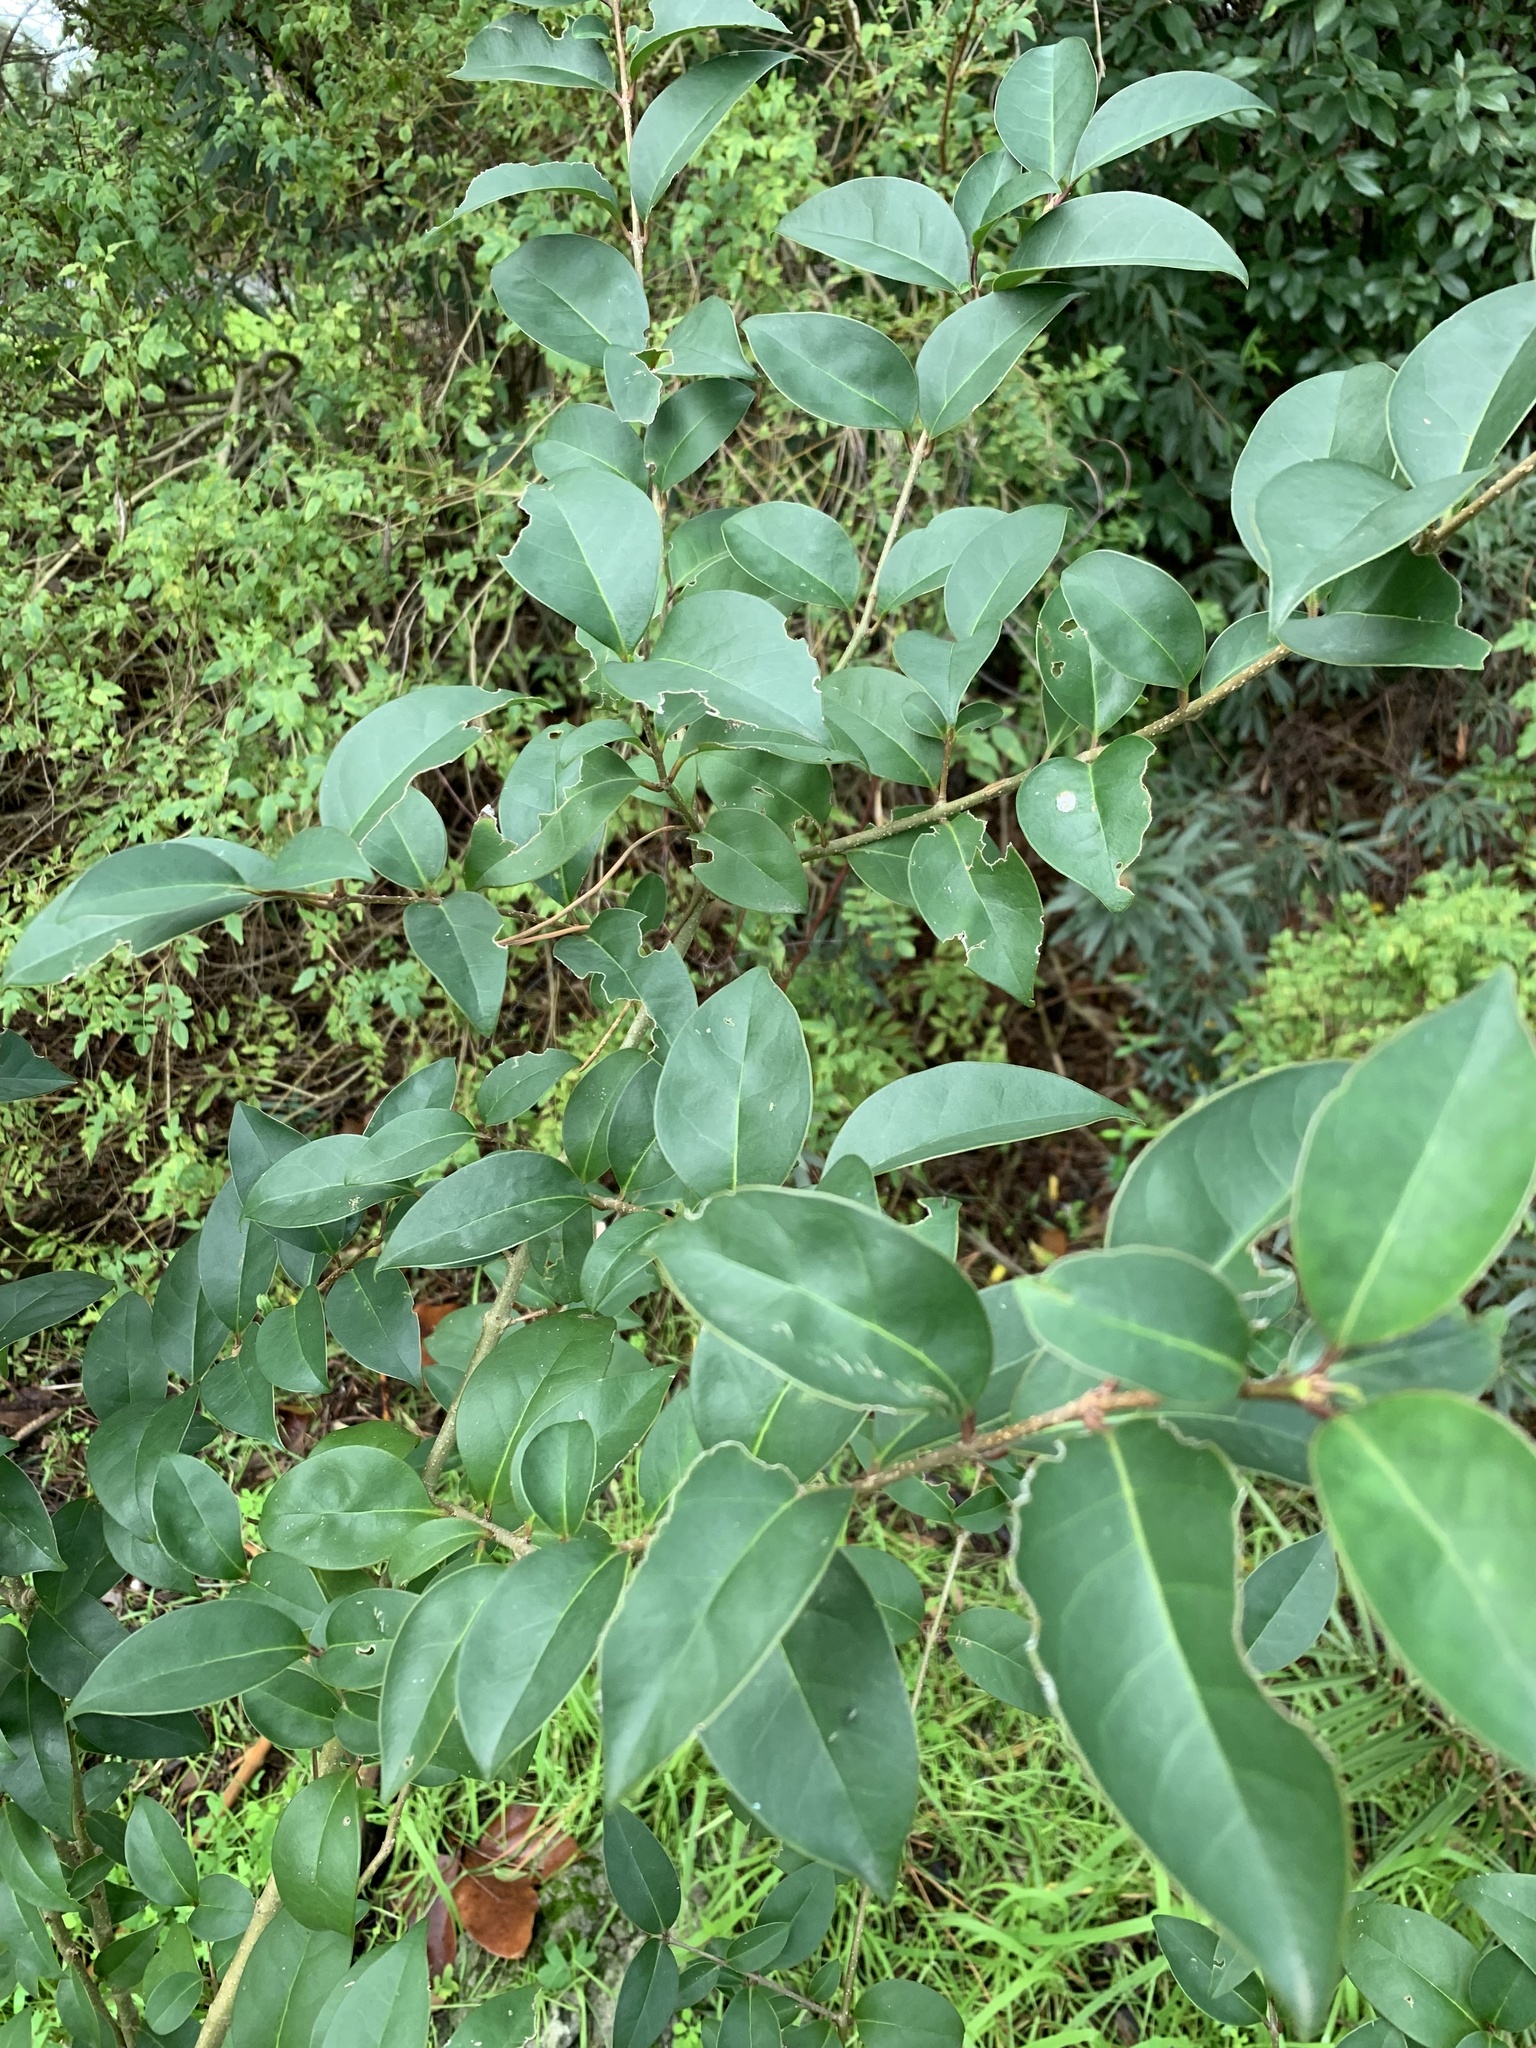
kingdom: Plantae
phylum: Tracheophyta
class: Magnoliopsida
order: Lamiales
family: Oleaceae
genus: Ligustrum
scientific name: Ligustrum lucidum
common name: Glossy privet
